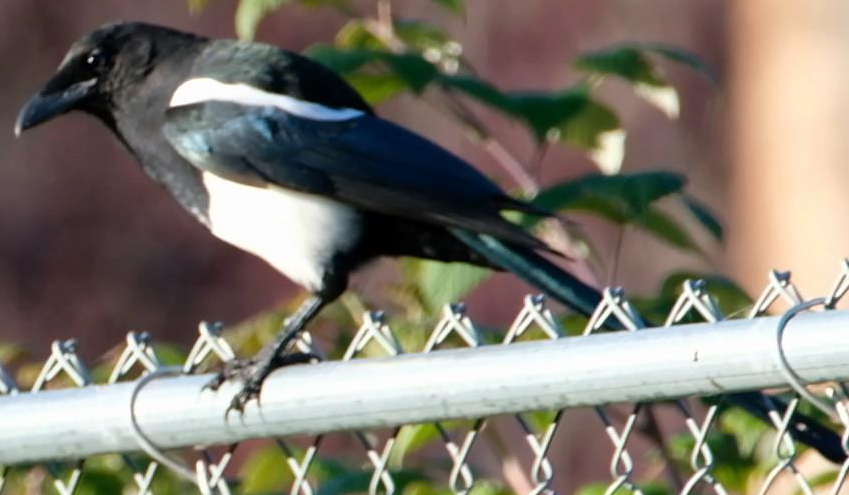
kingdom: Animalia
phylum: Chordata
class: Aves
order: Passeriformes
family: Corvidae
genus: Pica
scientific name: Pica hudsonia
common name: Black-billed magpie
